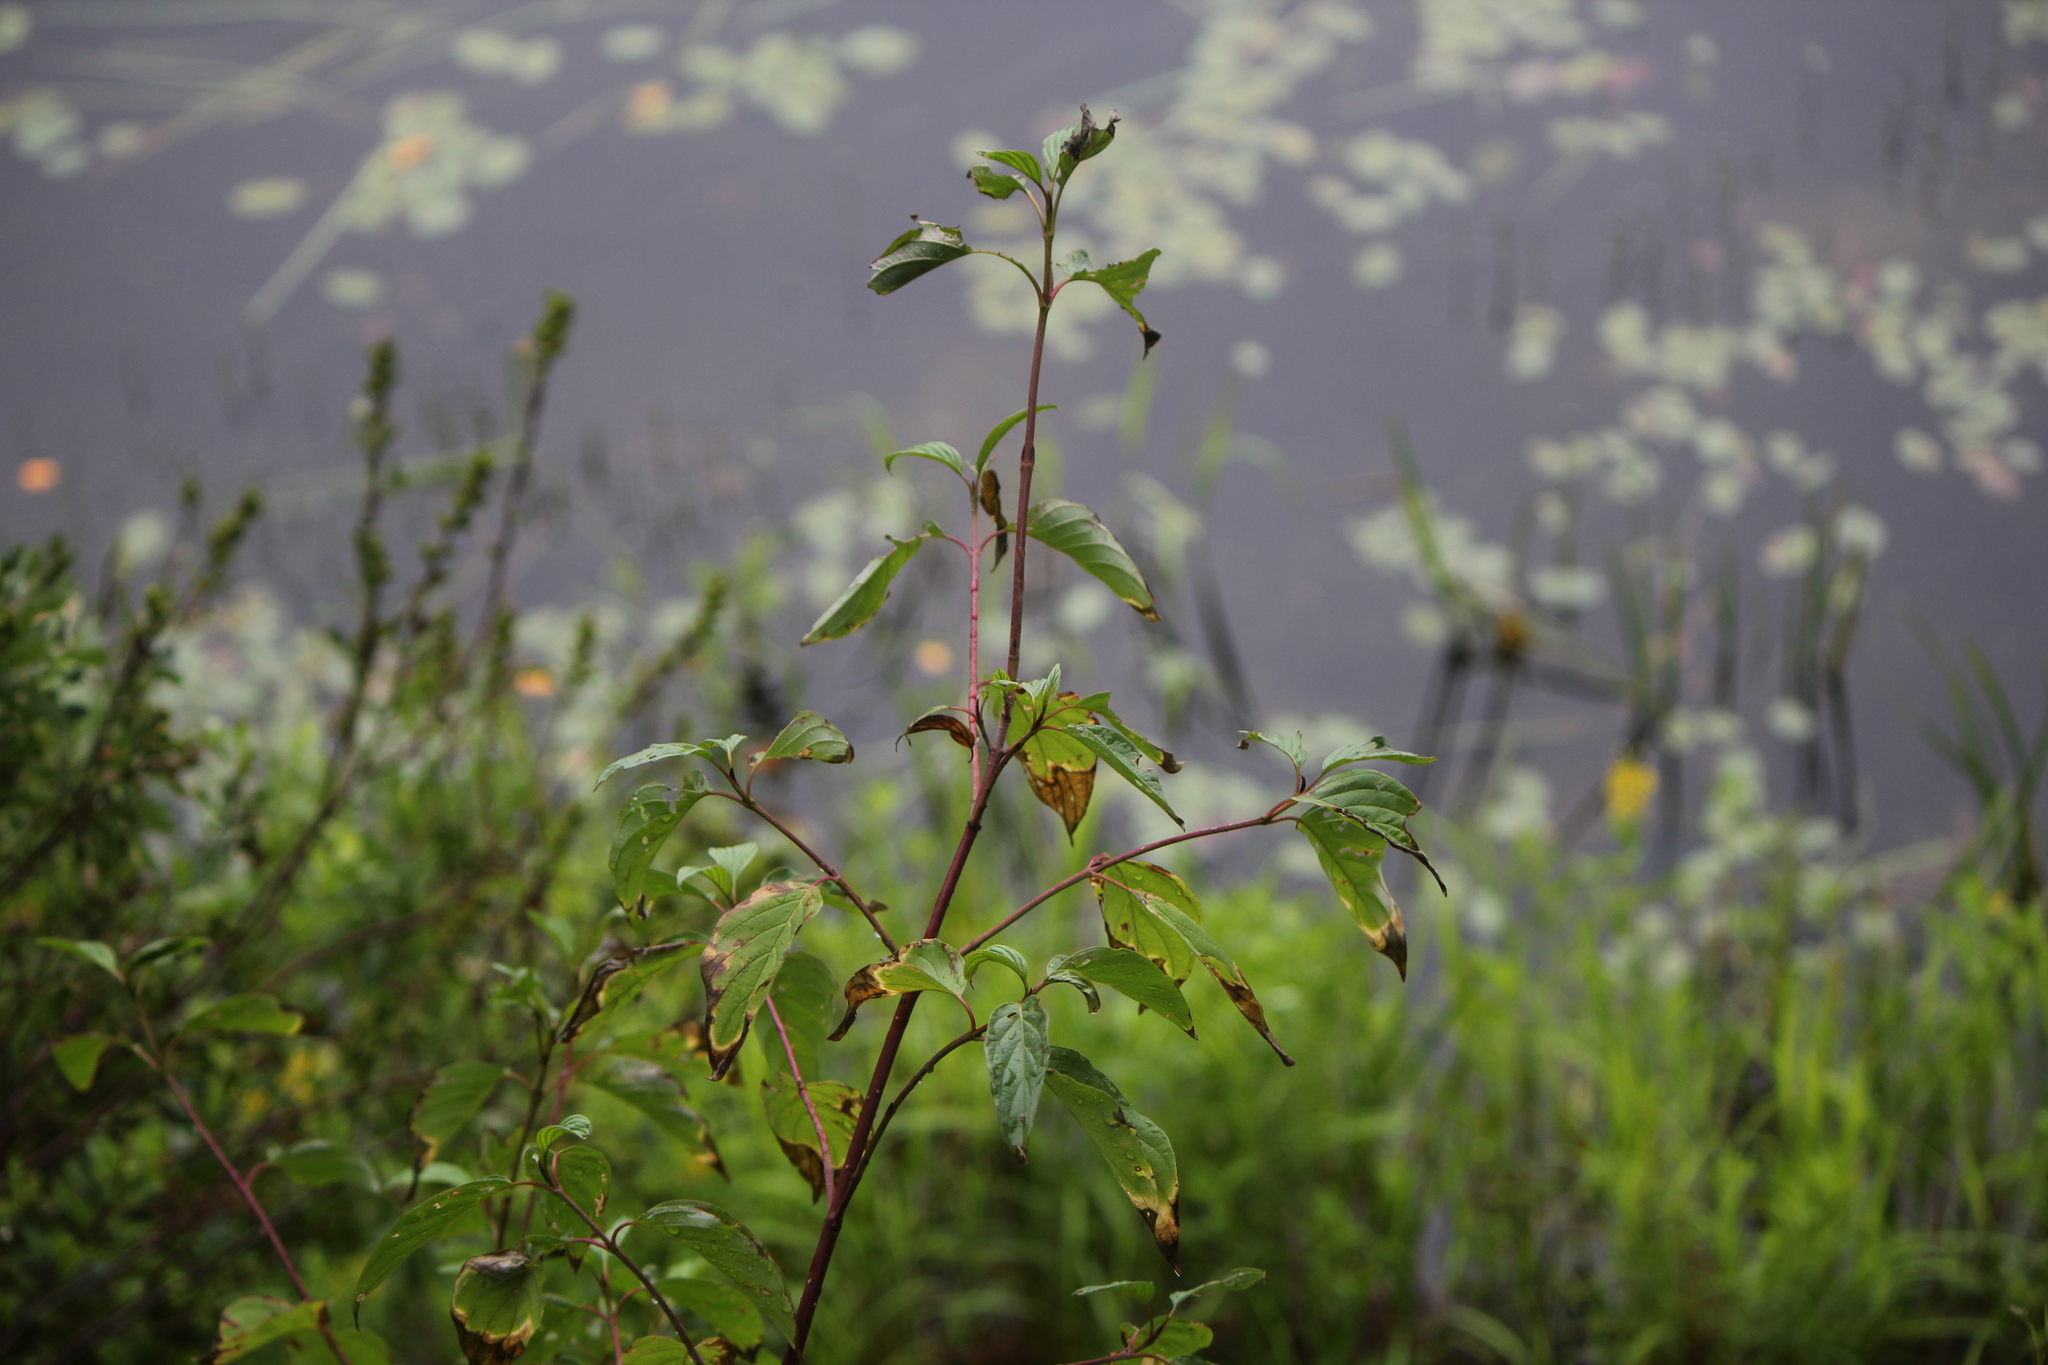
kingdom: Plantae
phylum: Tracheophyta
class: Magnoliopsida
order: Cornales
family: Cornaceae
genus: Cornus
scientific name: Cornus sericea
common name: Red-osier dogwood
